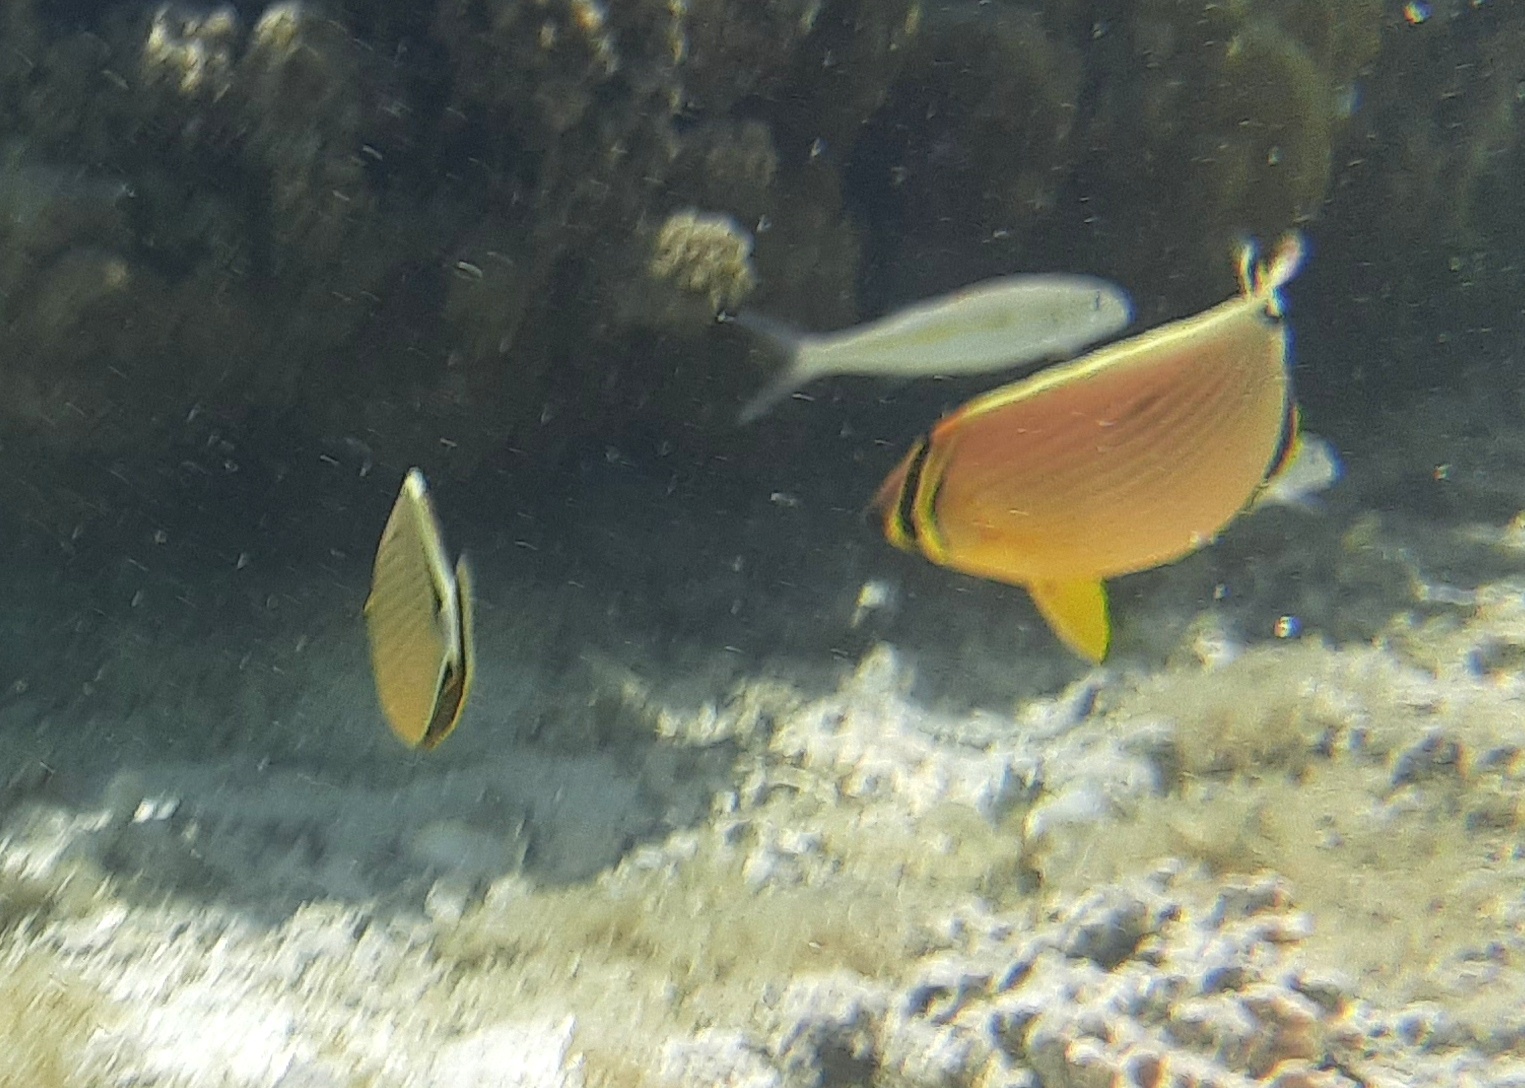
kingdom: Animalia
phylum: Chordata
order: Perciformes
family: Chaetodontidae
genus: Chaetodon
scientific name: Chaetodon lunulatus
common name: Redfin butterflyfish
